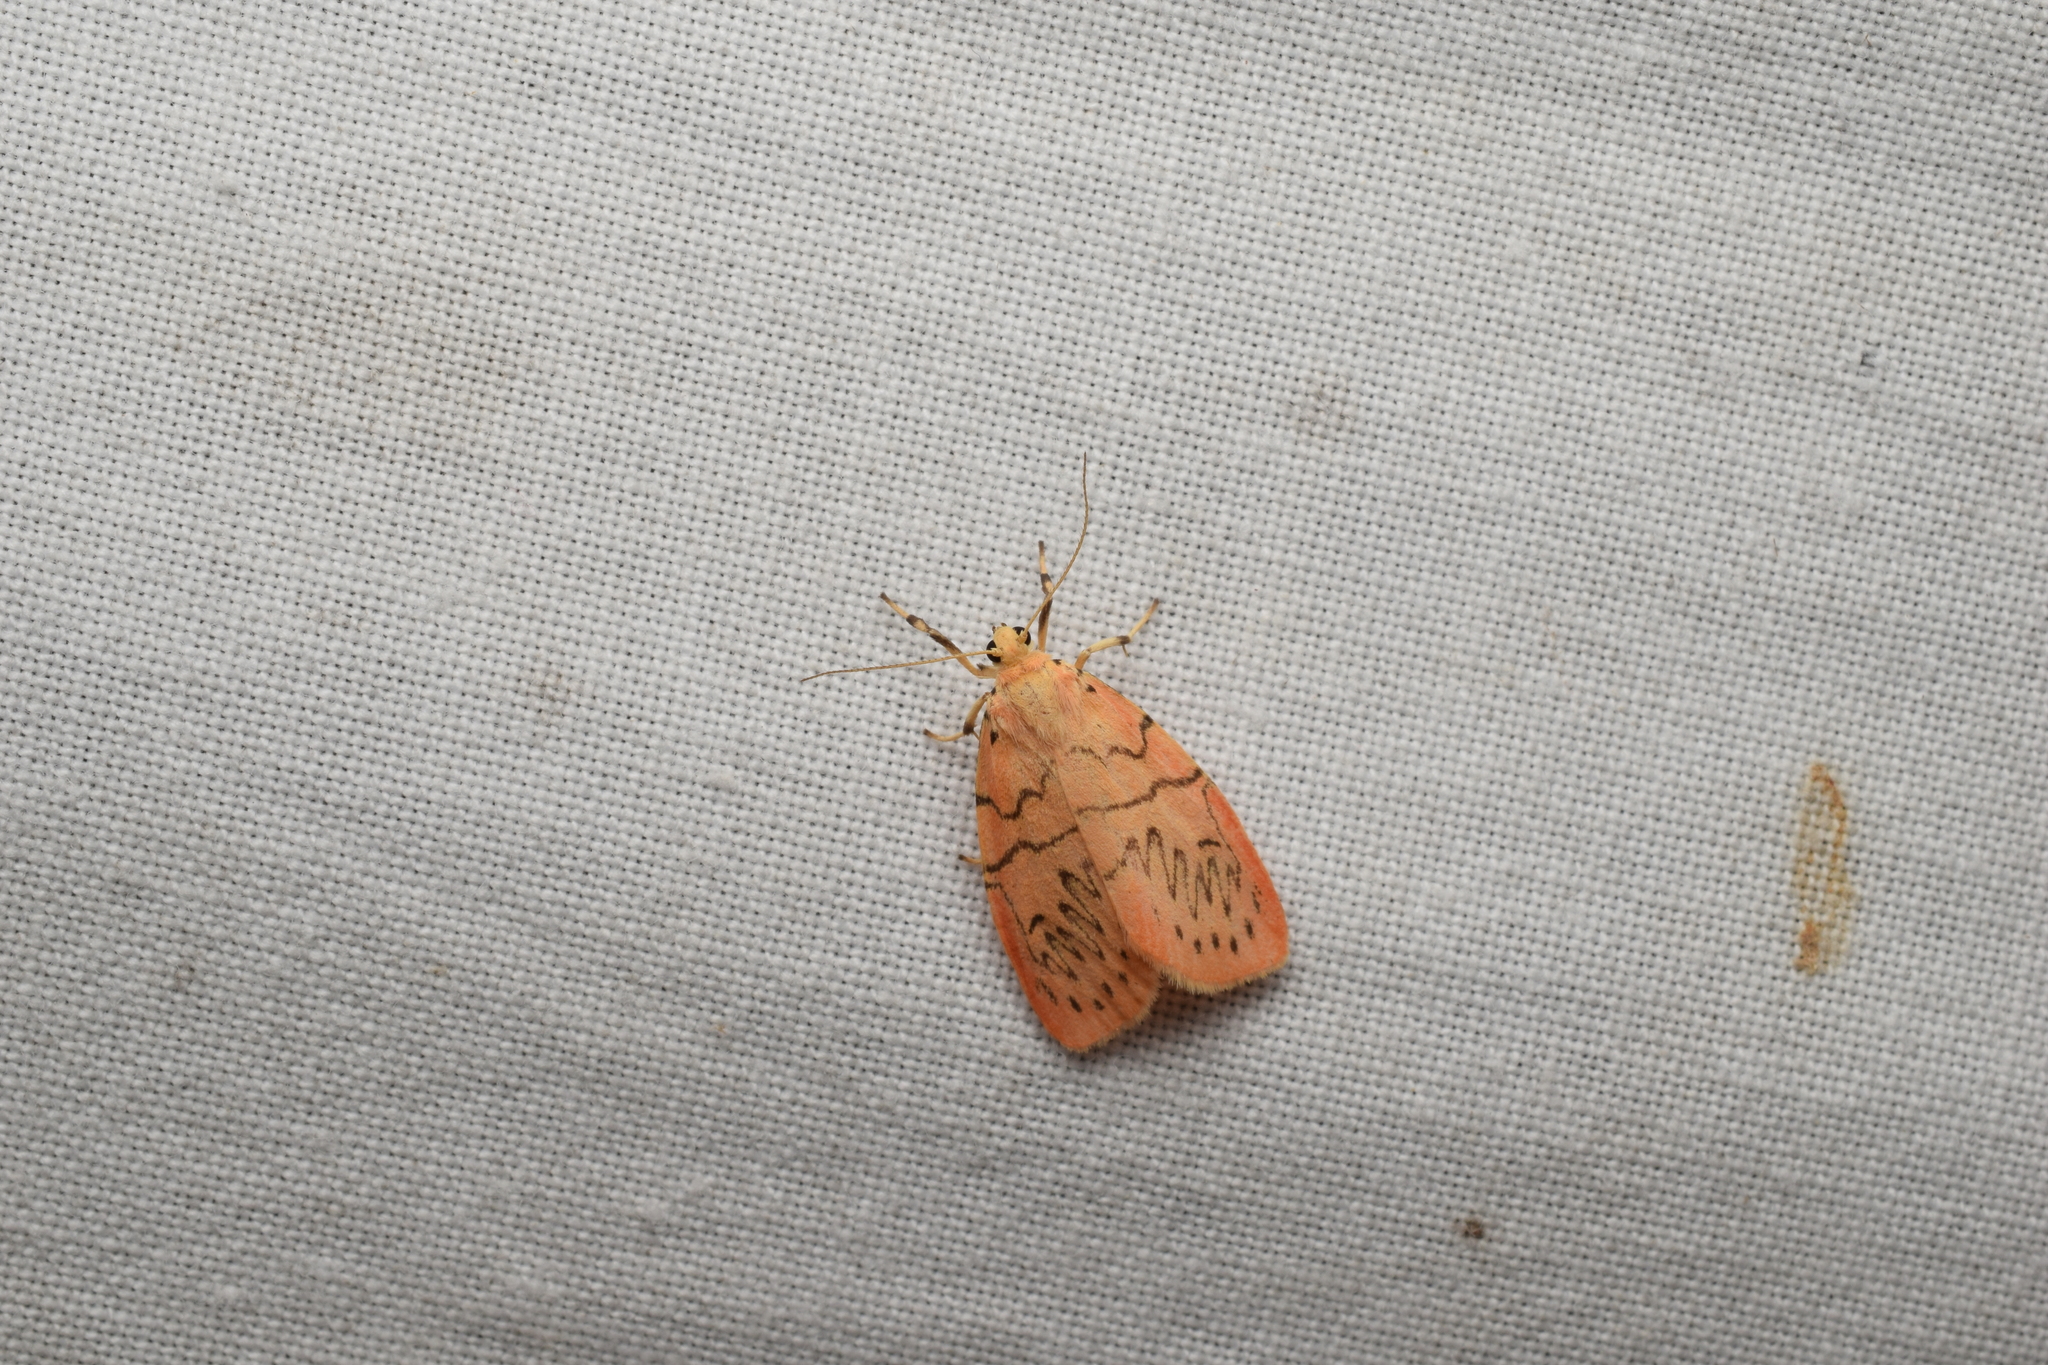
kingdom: Animalia
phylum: Arthropoda
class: Insecta
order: Lepidoptera
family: Erebidae
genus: Miltochrista
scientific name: Miltochrista miniata
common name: Rosy footman
